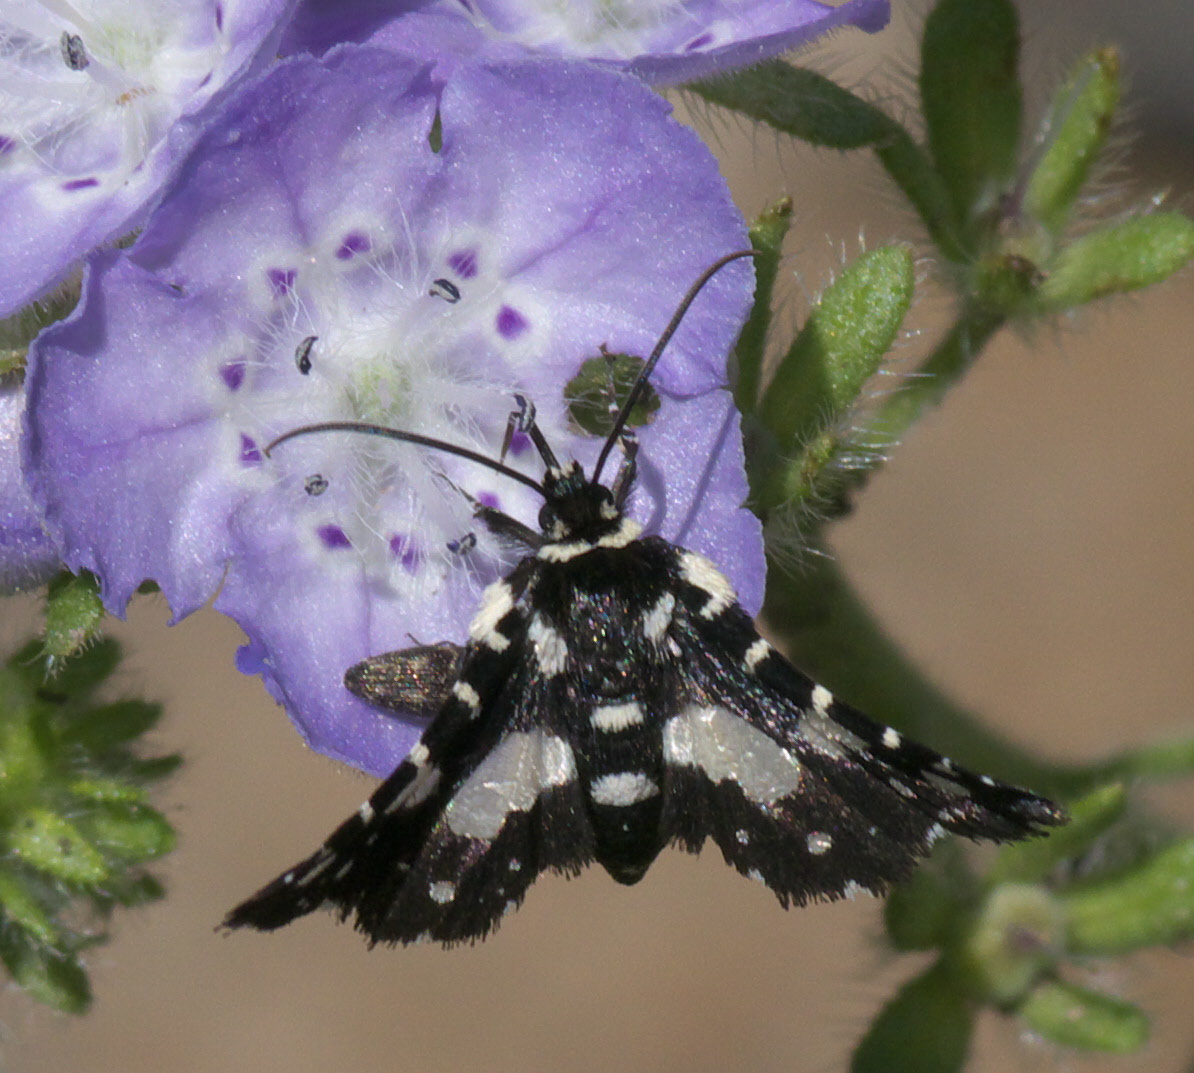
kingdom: Animalia
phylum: Arthropoda
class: Insecta
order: Lepidoptera
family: Thyrididae
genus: Pseudothyris
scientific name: Pseudothyris sepulchralis
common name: Mournful thyris moth
